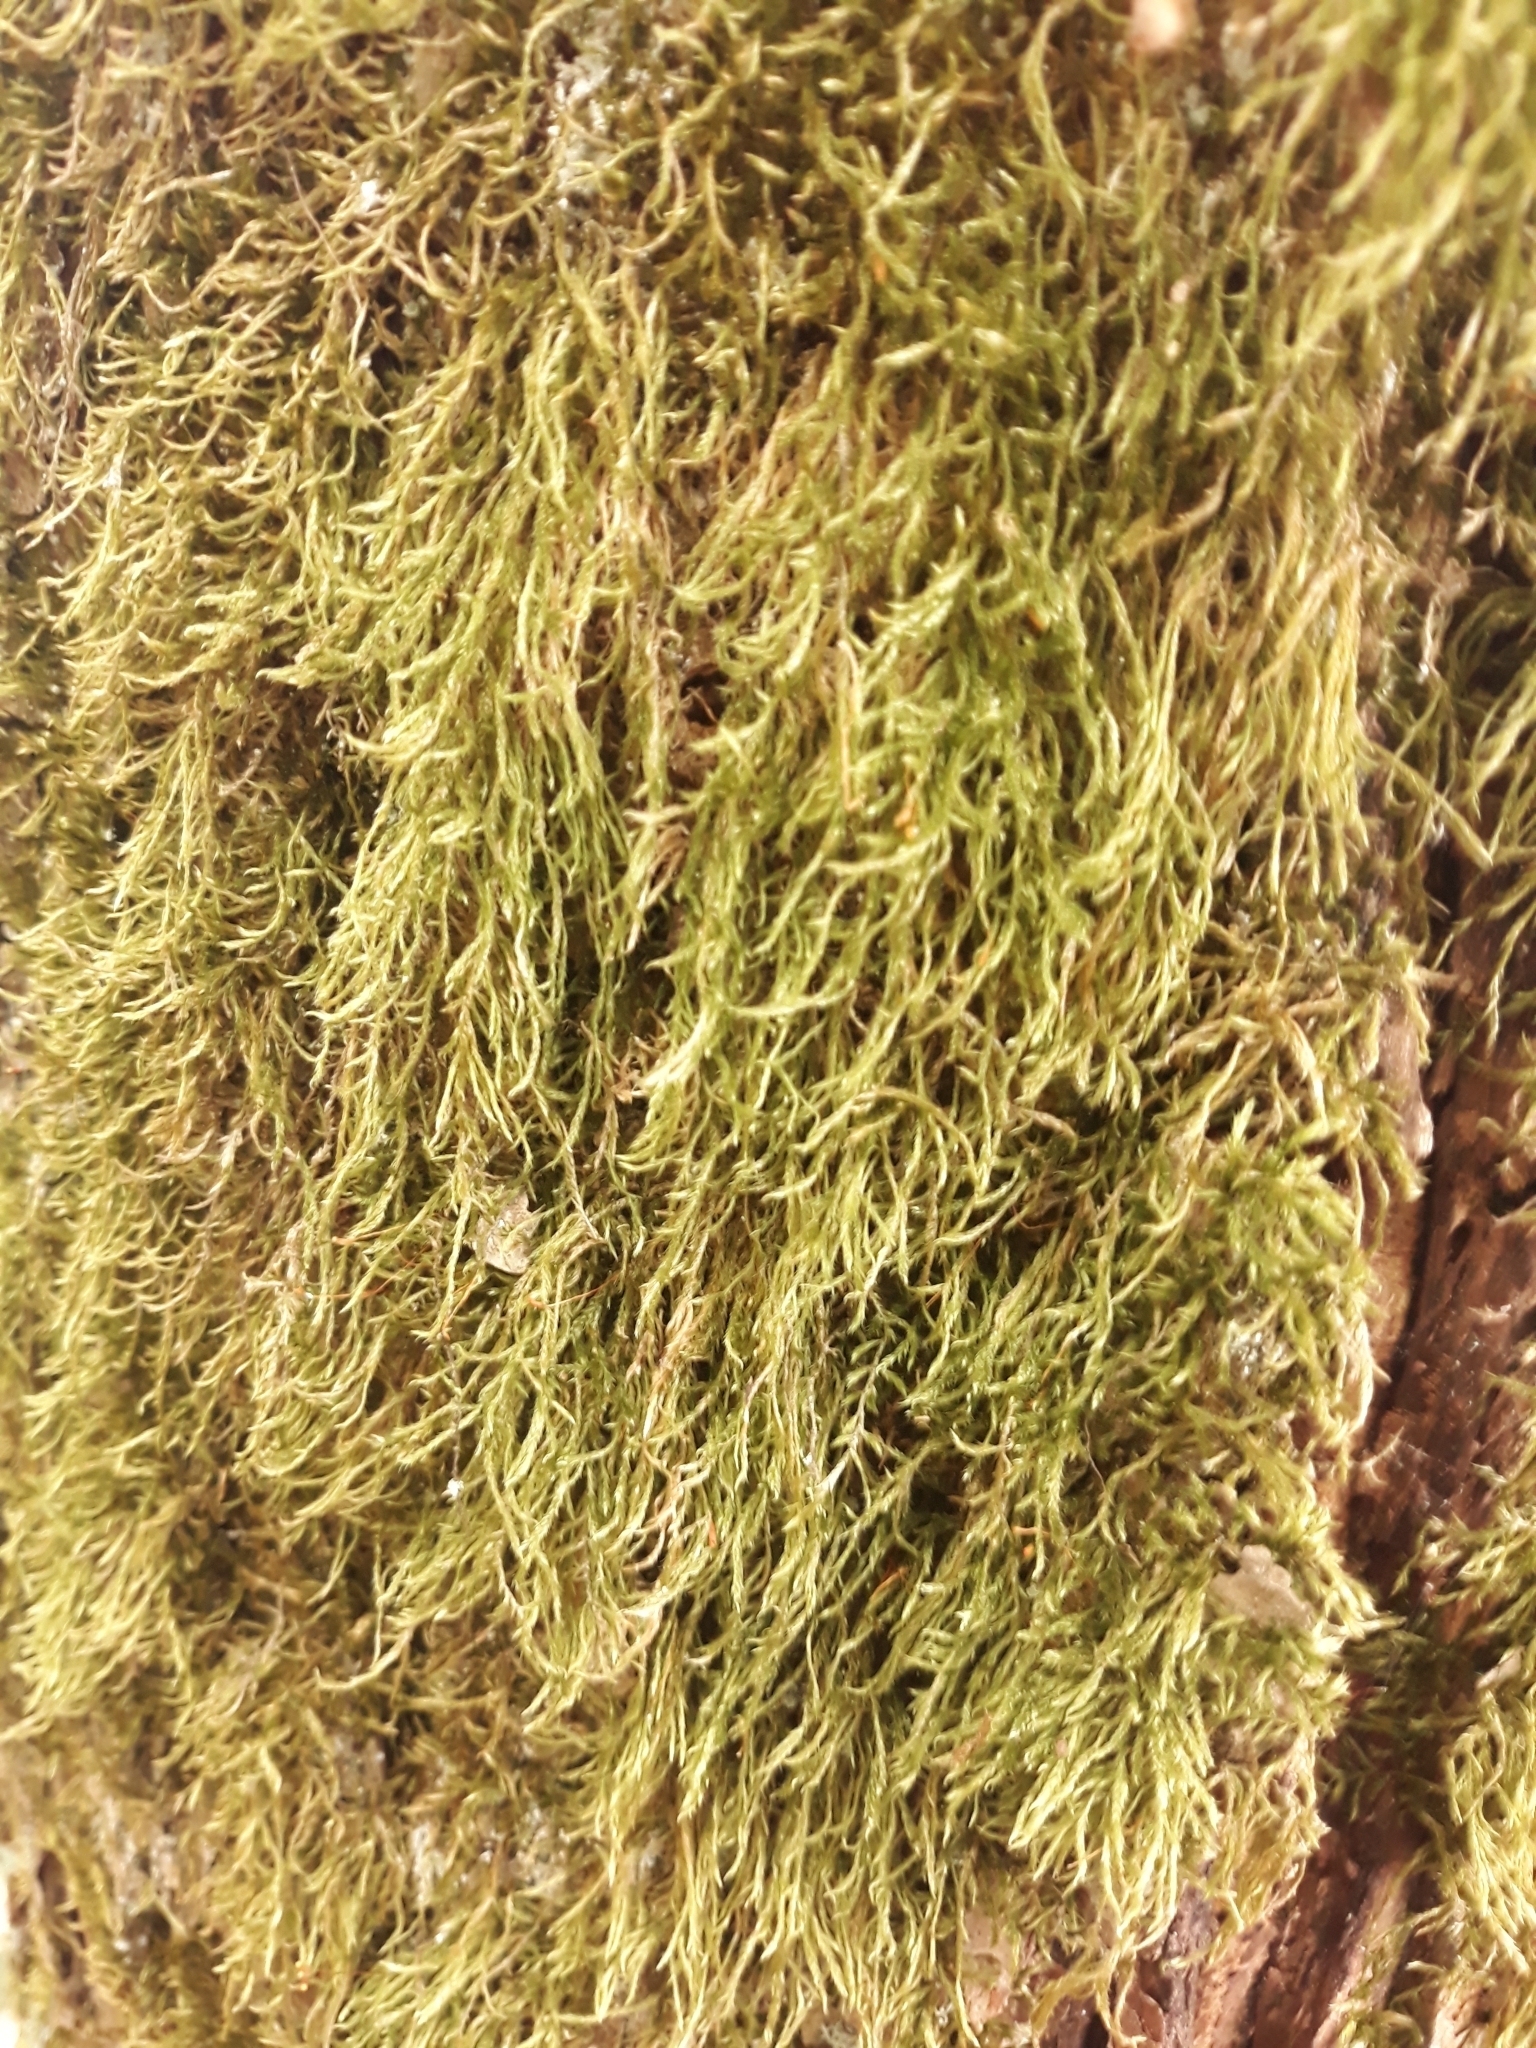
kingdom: Plantae
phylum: Bryophyta
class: Bryopsida
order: Hypnales
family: Hypnaceae
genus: Hypnum
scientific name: Hypnum cupressiforme
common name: Cypress-leaved plait-moss
